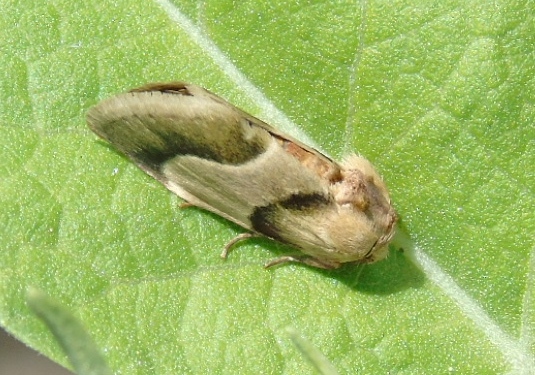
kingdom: Animalia
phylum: Arthropoda
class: Insecta
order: Lepidoptera
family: Noctuidae
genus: Chalcoecia
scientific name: Chalcoecia
